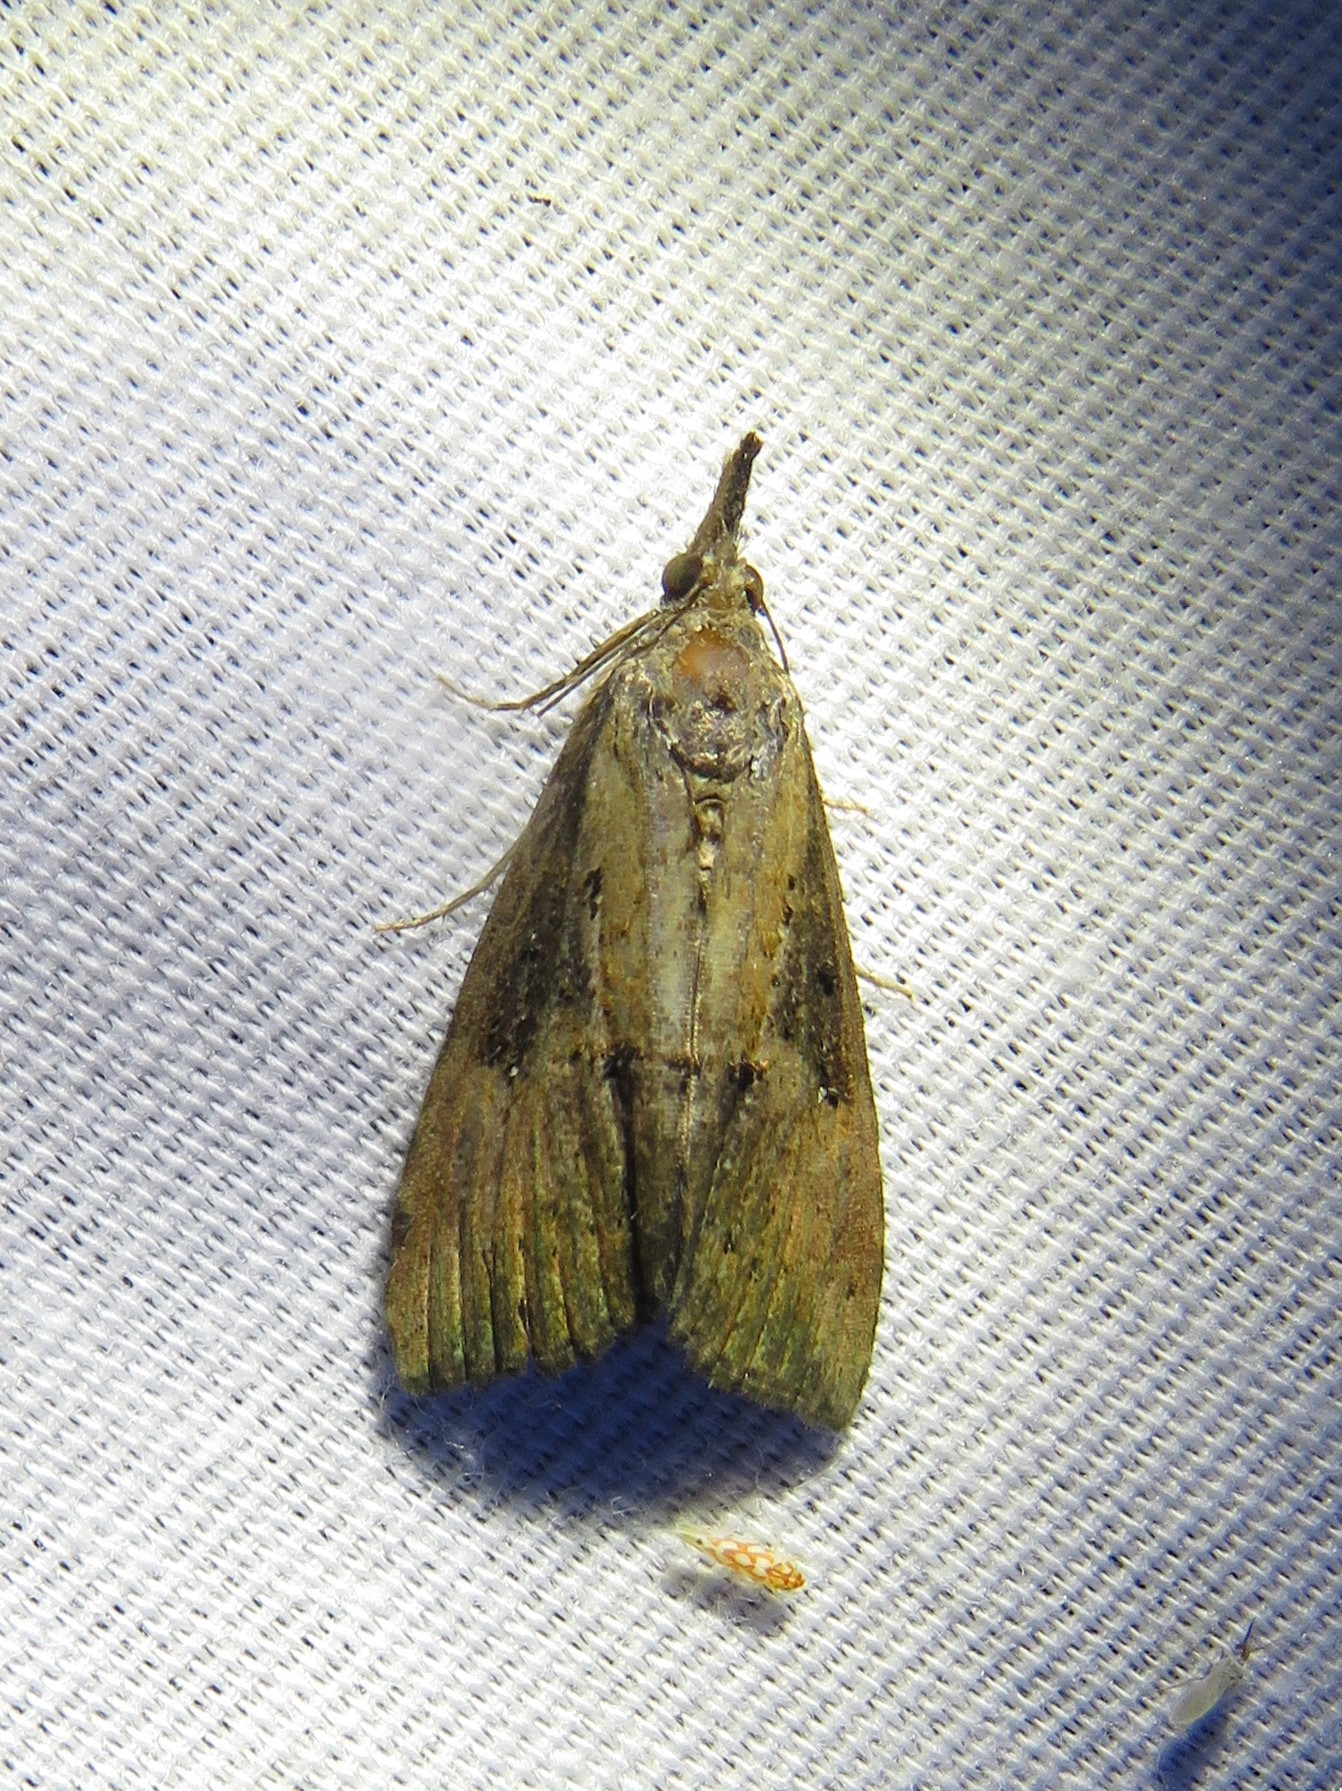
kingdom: Animalia
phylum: Arthropoda
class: Insecta
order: Lepidoptera
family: Erebidae
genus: Hypena
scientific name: Hypena scabra
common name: Green cloverworm
